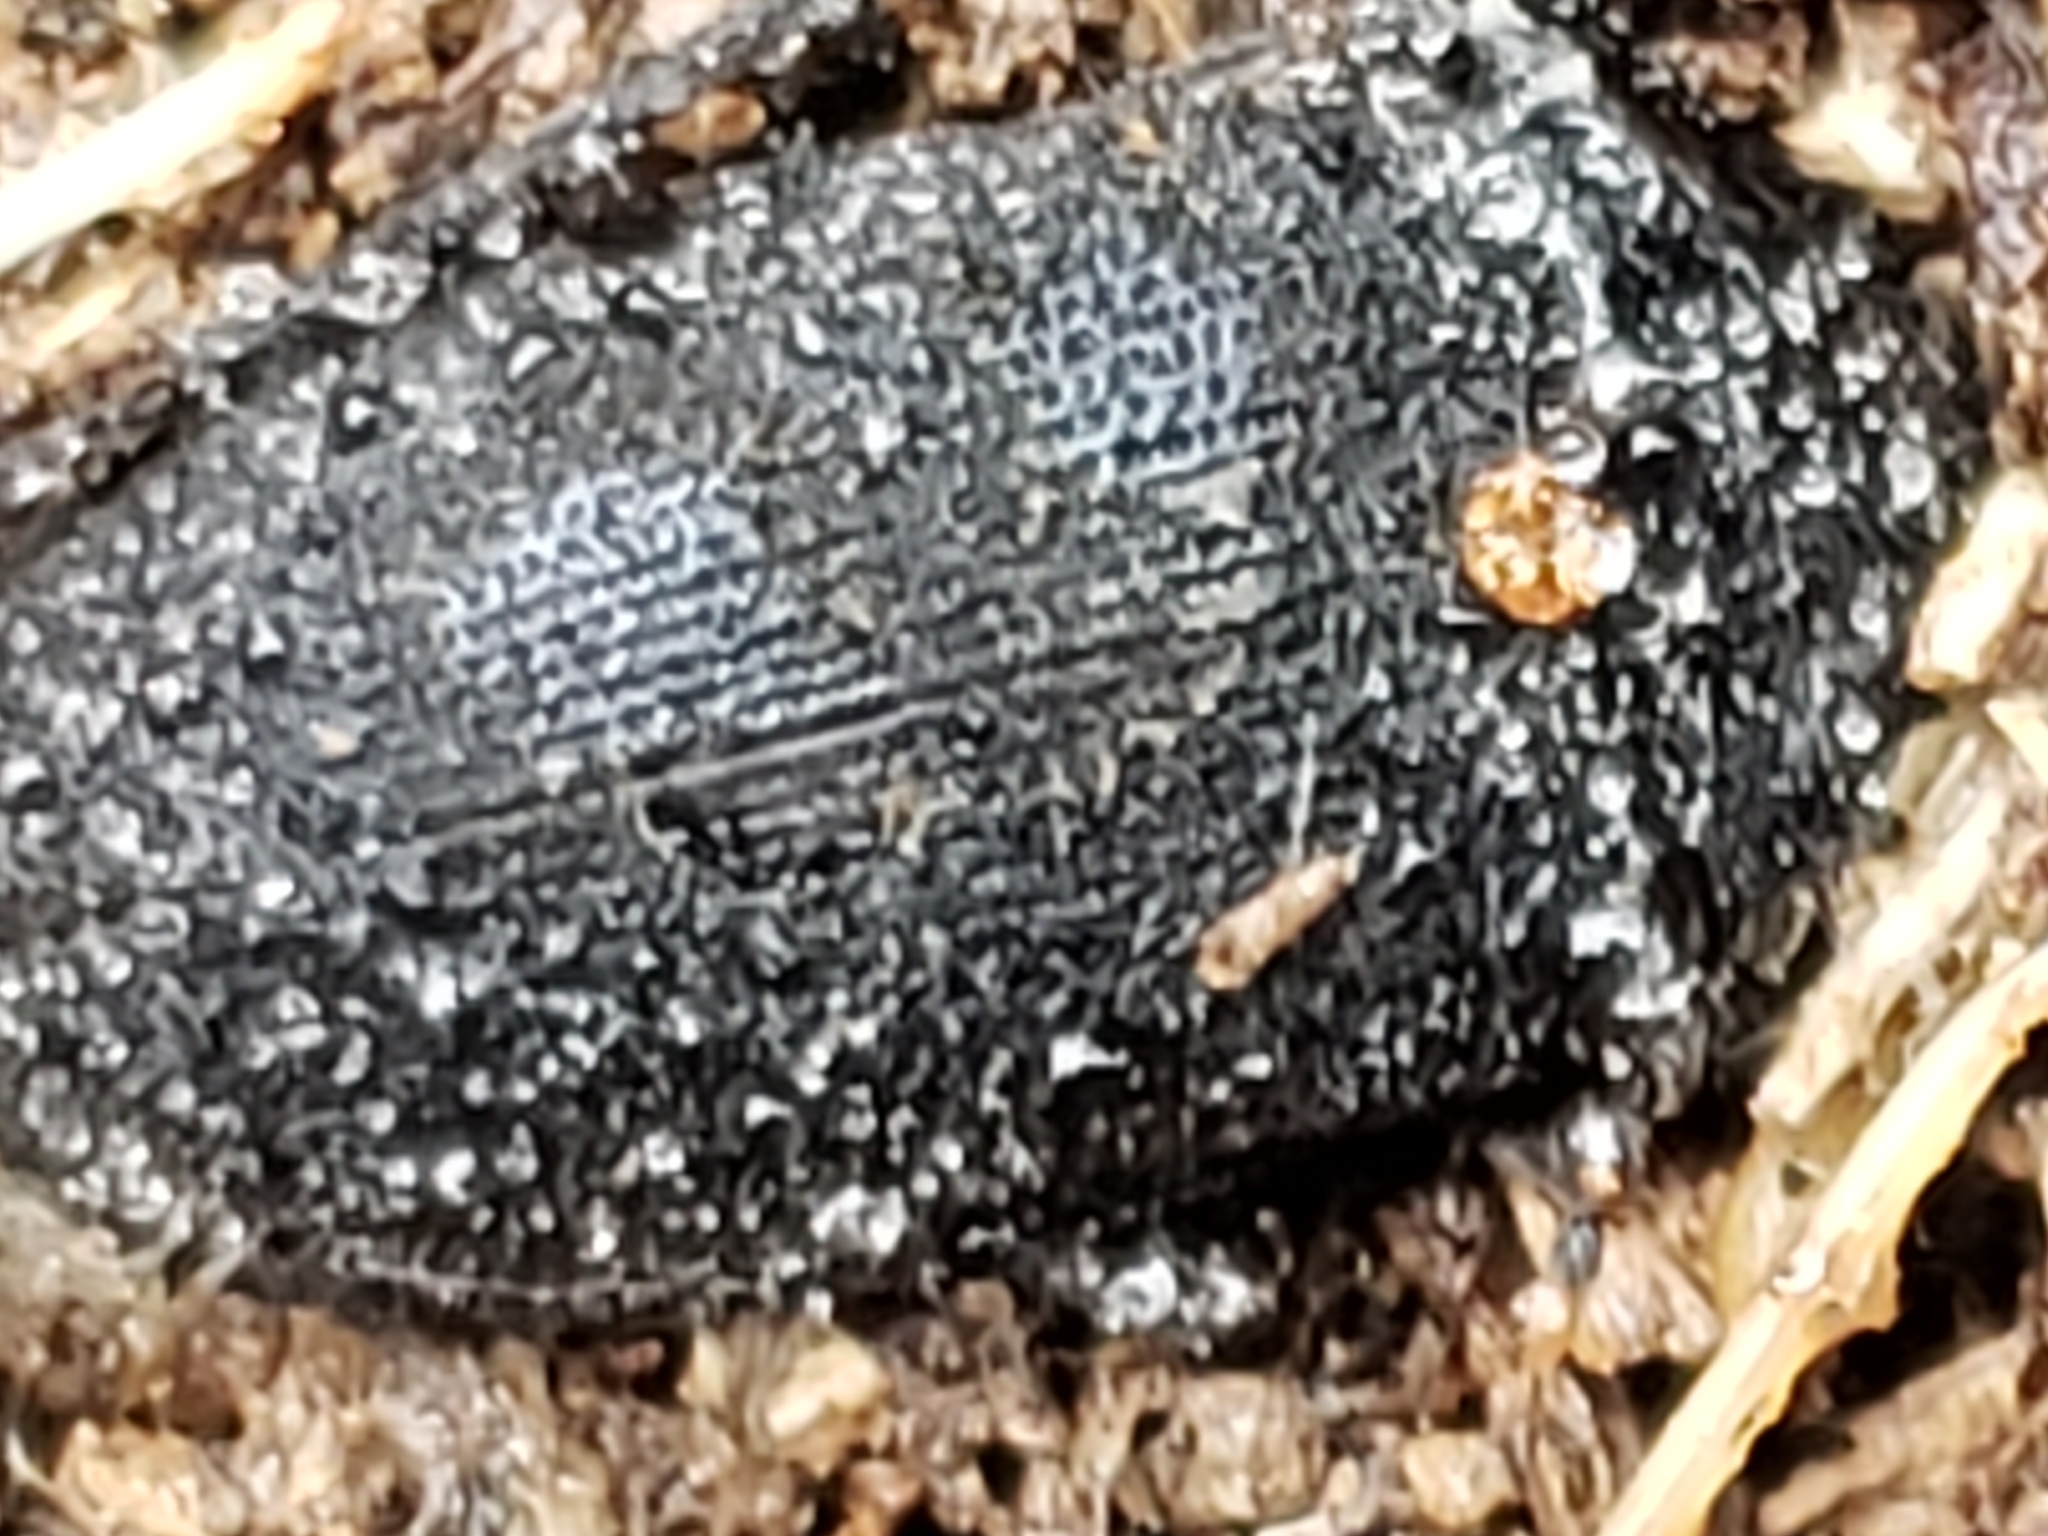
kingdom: Animalia
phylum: Arthropoda
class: Insecta
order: Coleoptera
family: Tetratomidae
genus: Penthe
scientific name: Penthe obliquata
